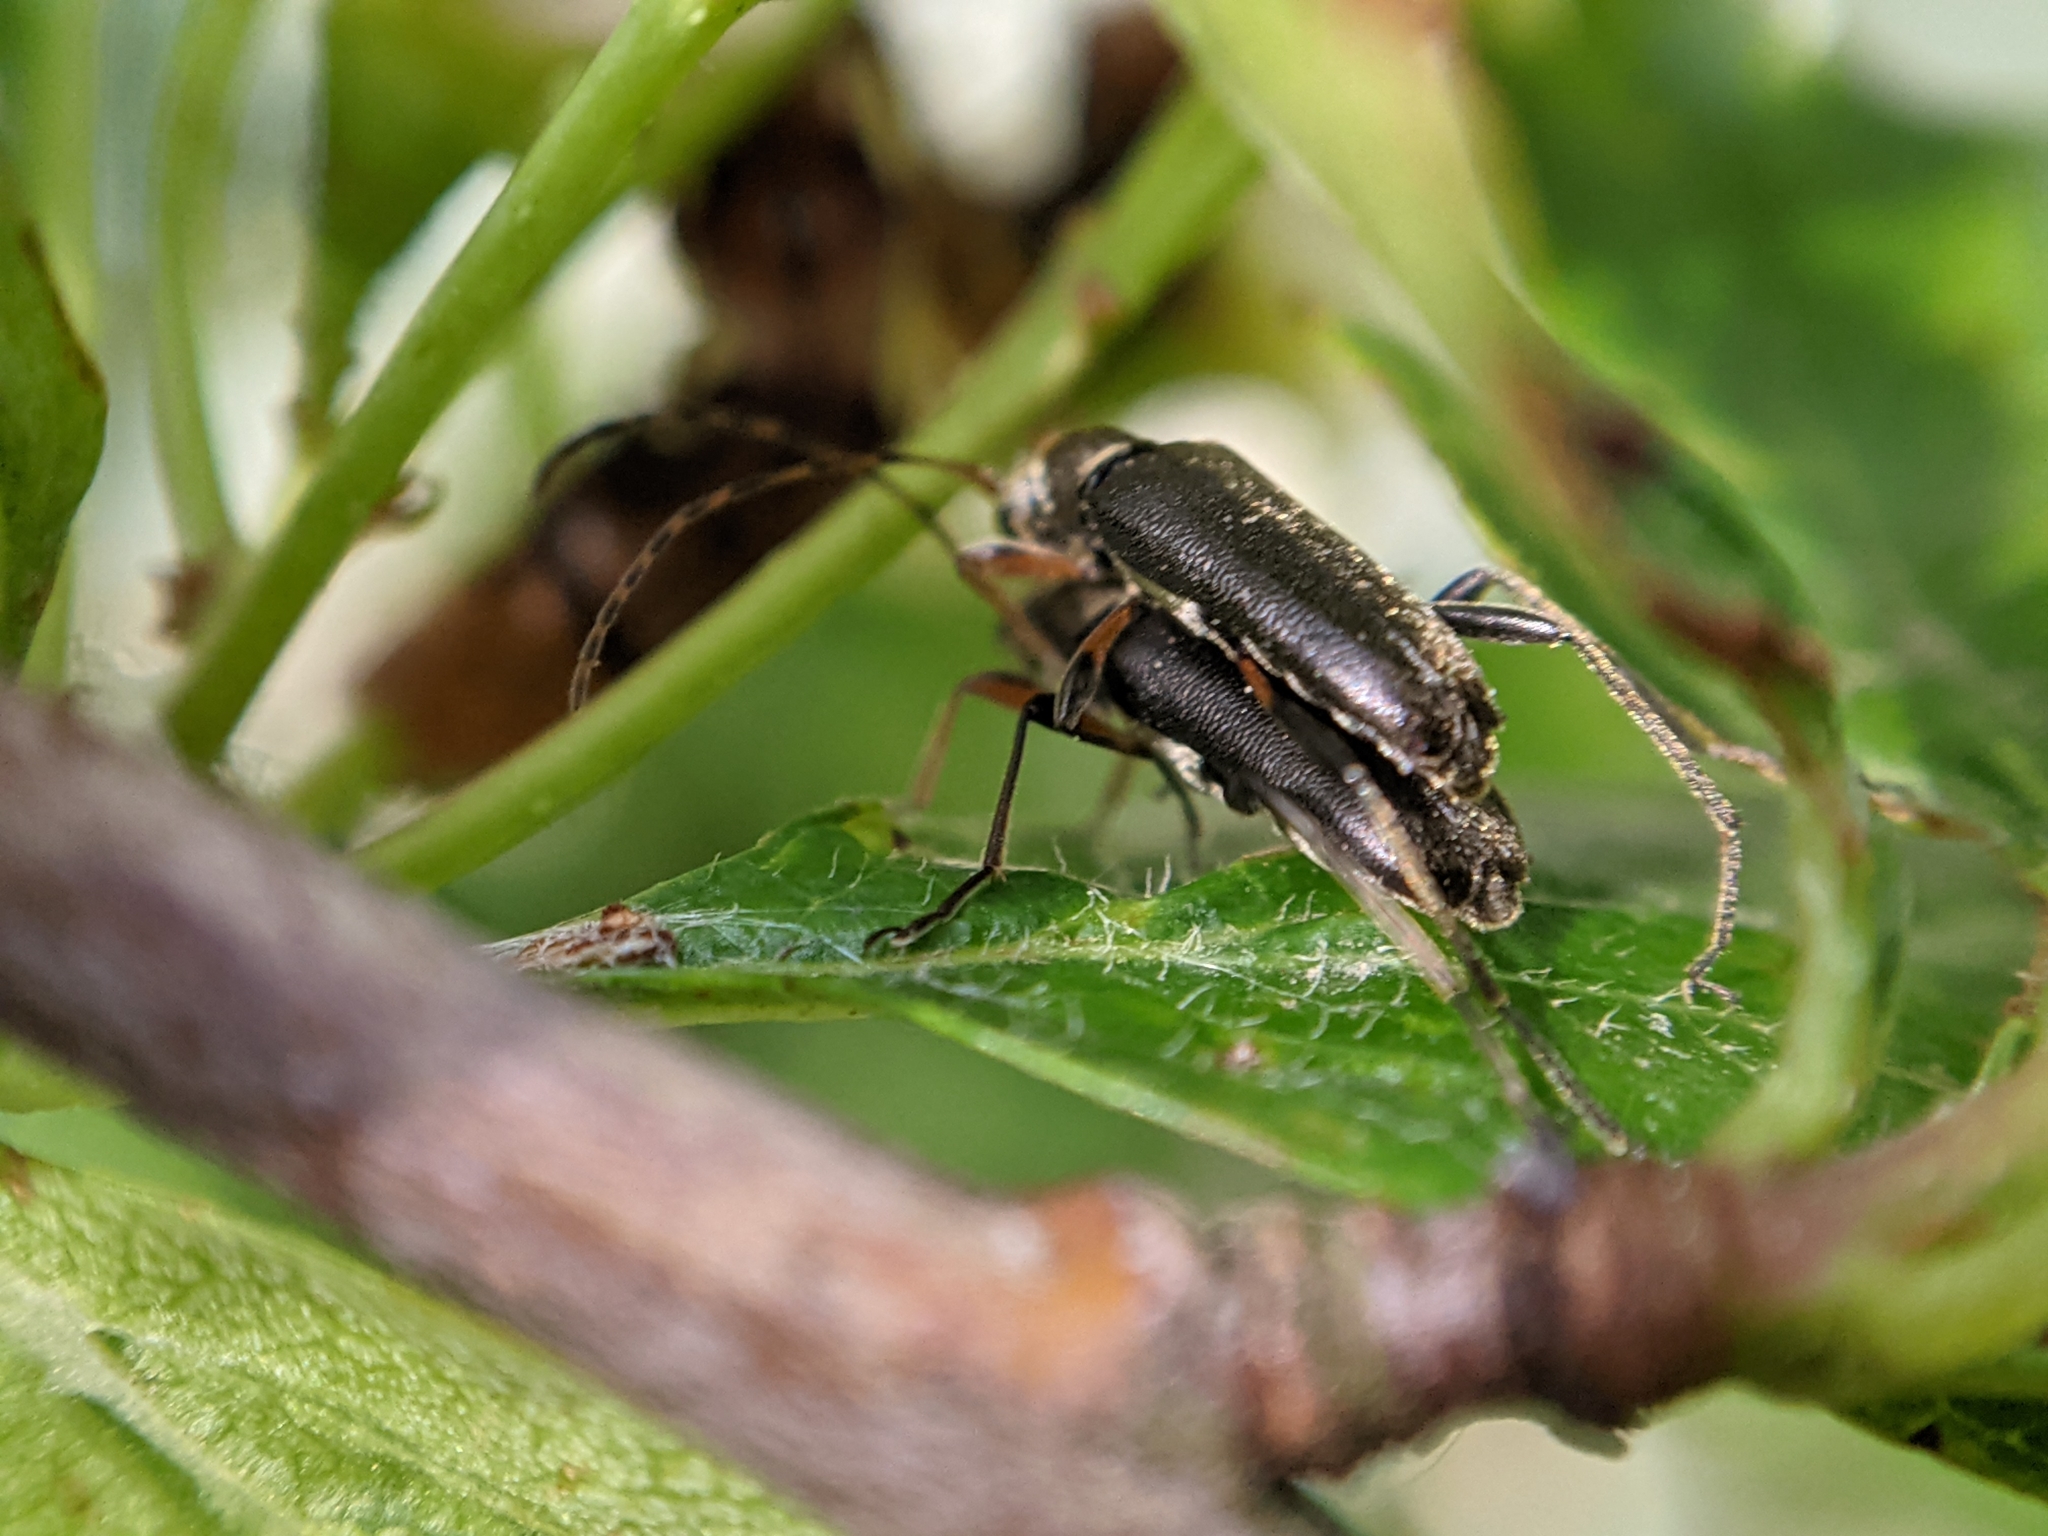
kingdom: Animalia
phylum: Arthropoda
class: Insecta
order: Coleoptera
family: Cerambycidae
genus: Grammoptera
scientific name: Grammoptera ruficornis
